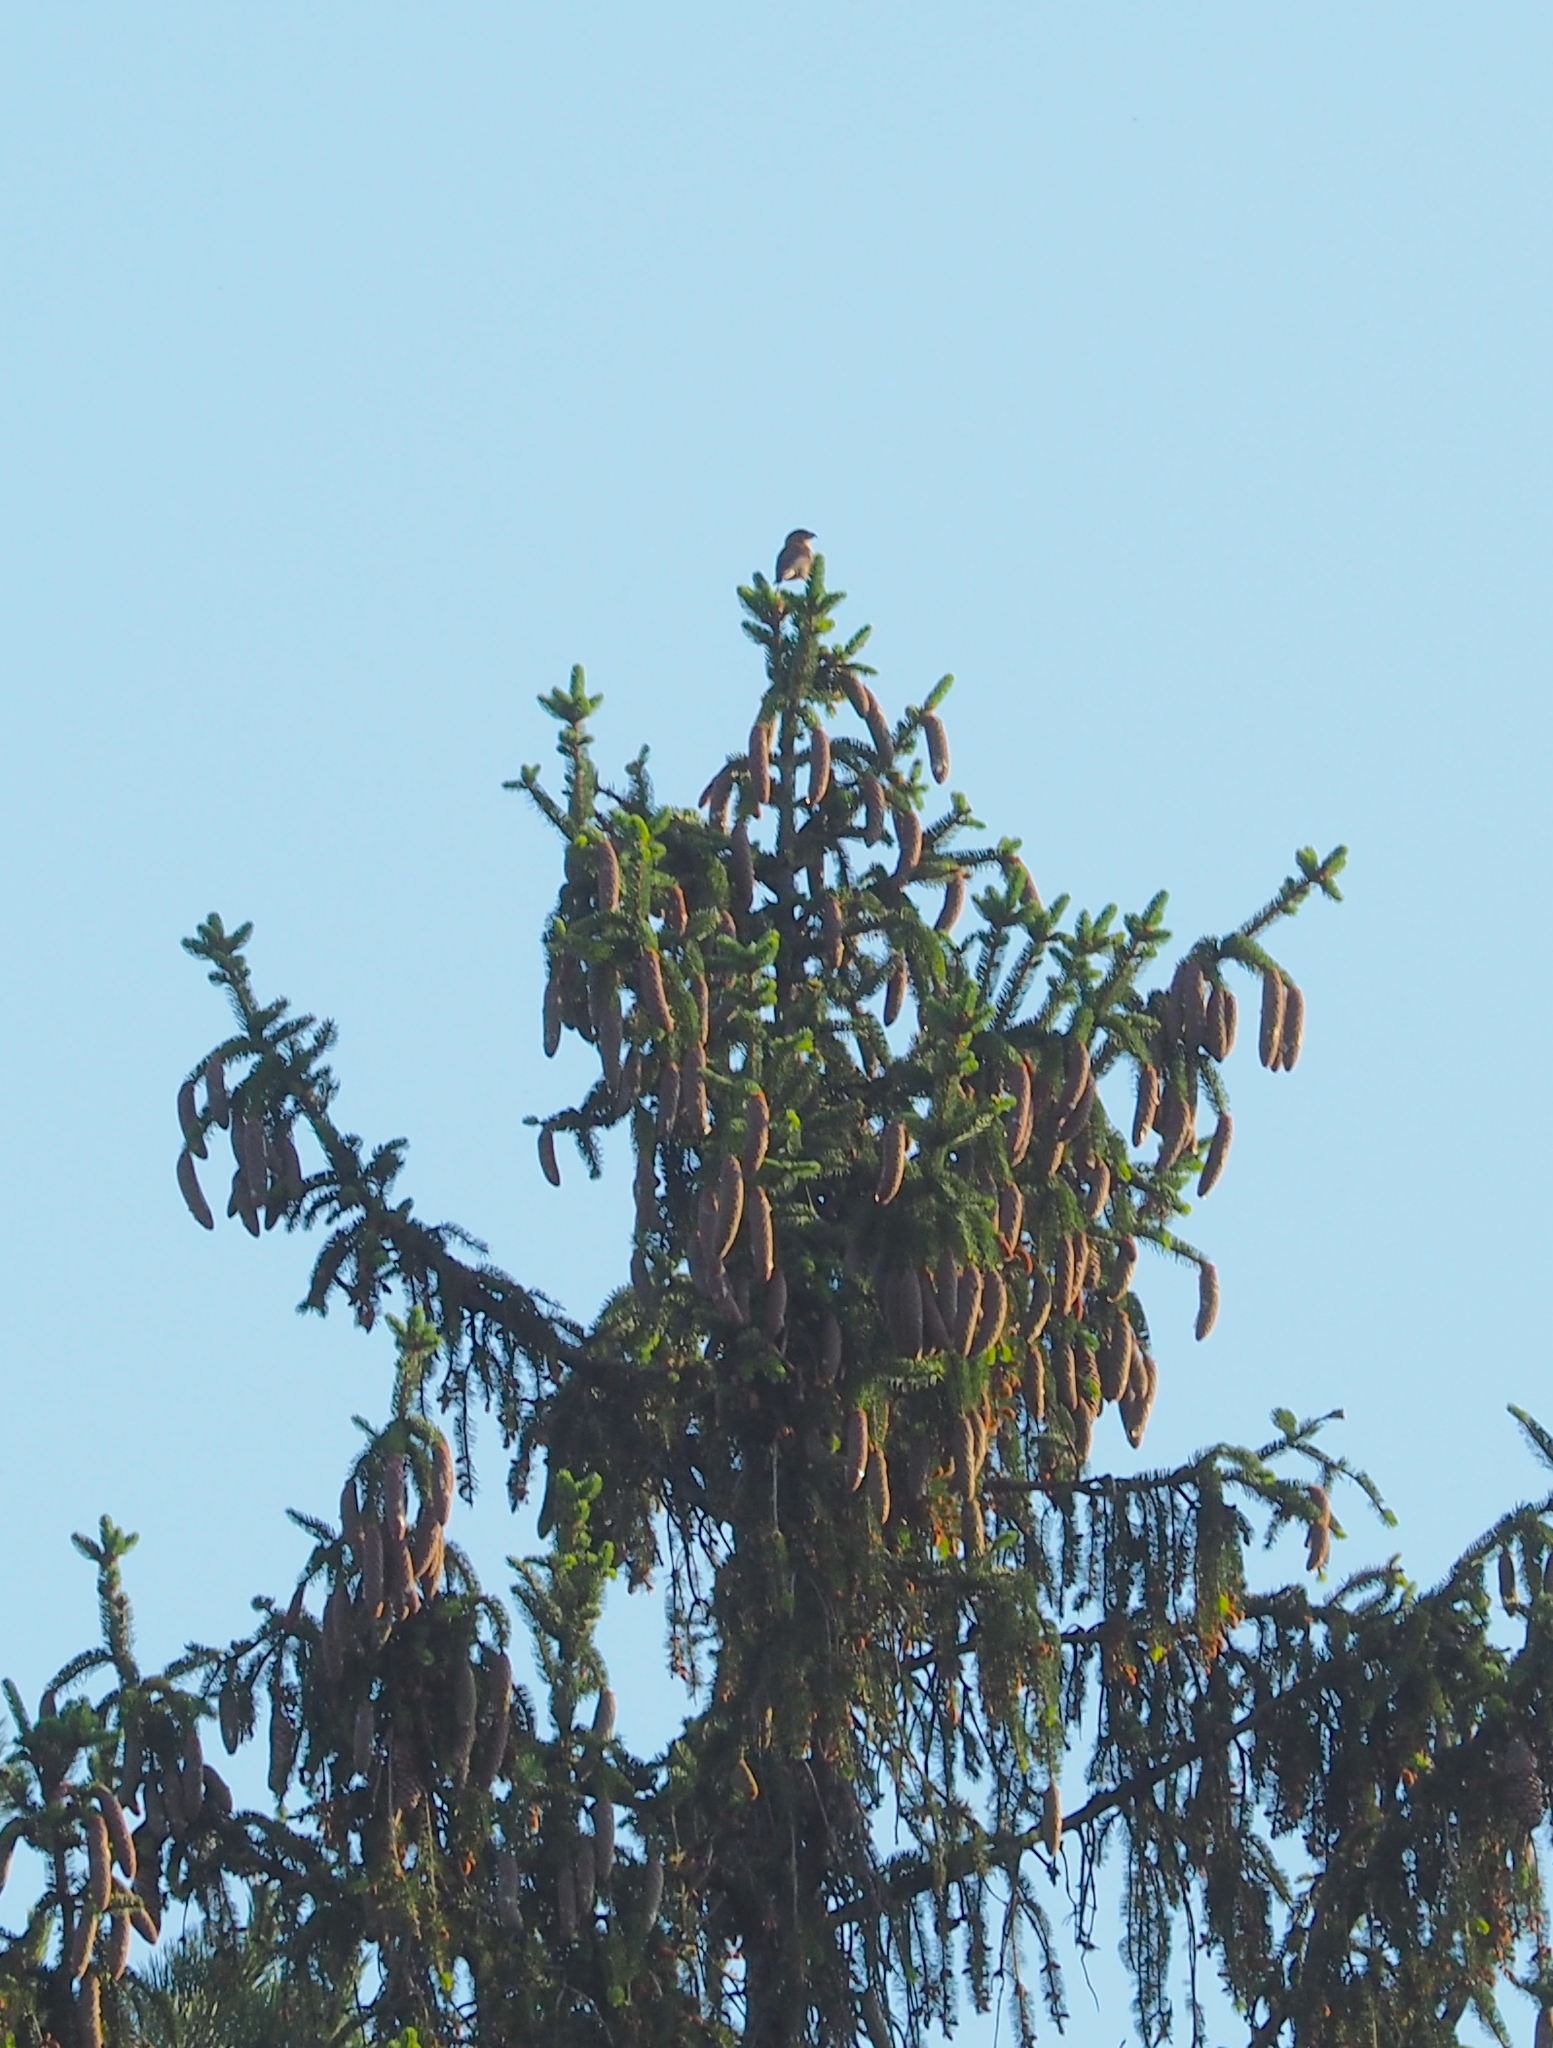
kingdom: Animalia
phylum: Chordata
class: Aves
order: Passeriformes
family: Fringillidae
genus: Loxia
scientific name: Loxia curvirostra
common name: Red crossbill
